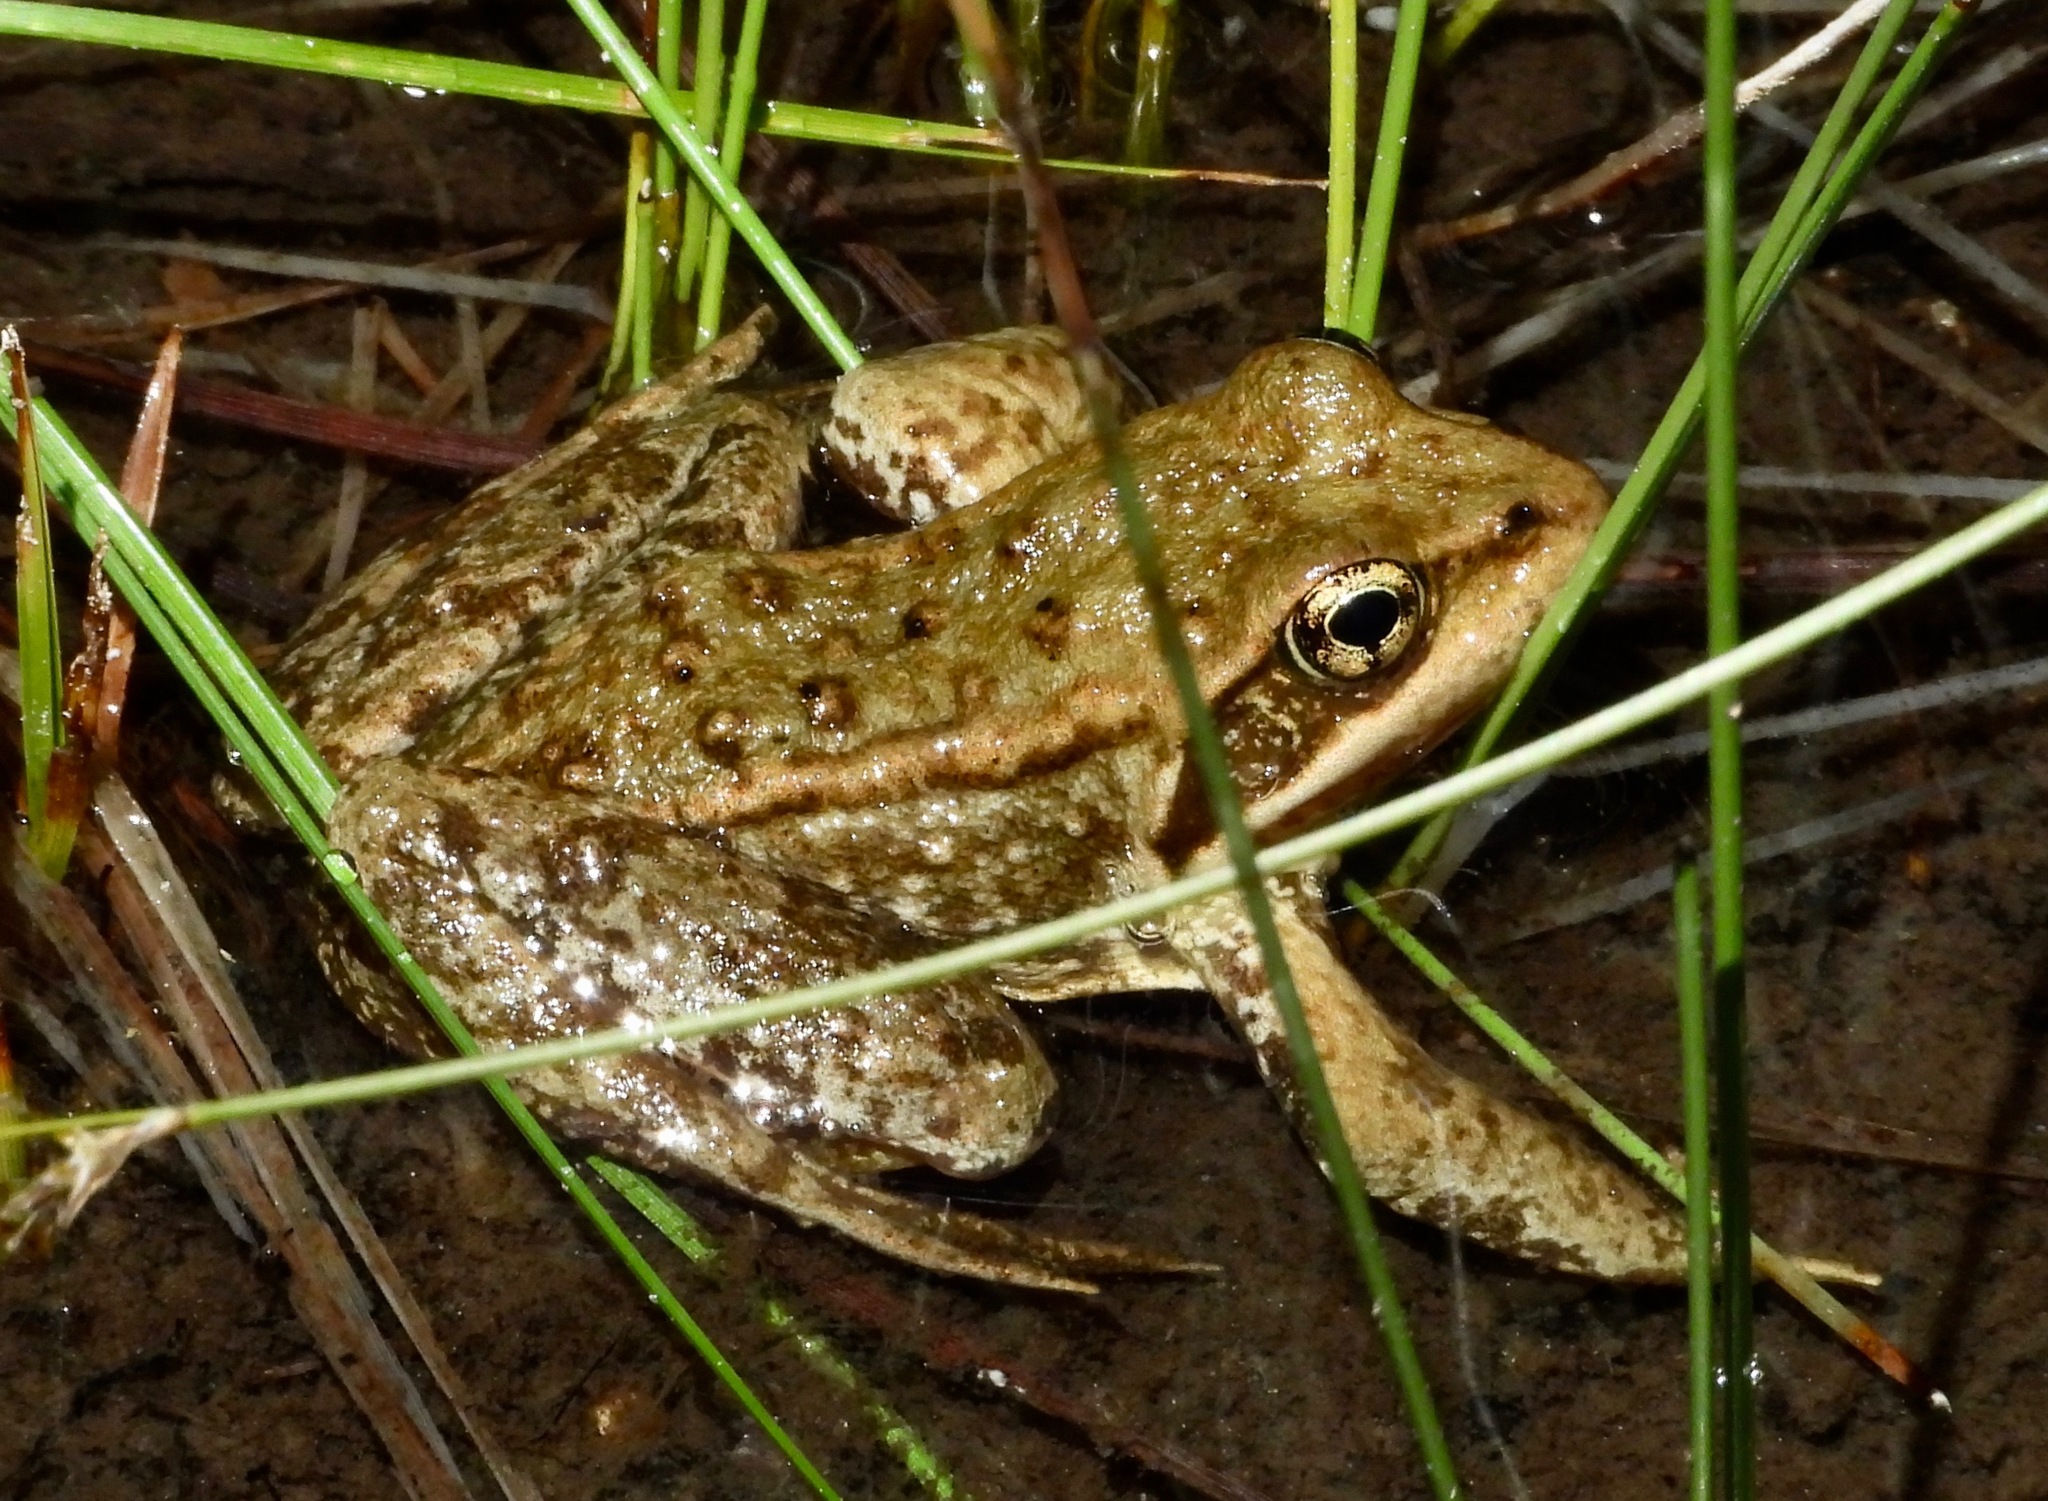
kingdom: Animalia
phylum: Chordata
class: Amphibia
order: Anura
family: Ranidae
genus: Rana
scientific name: Rana cascadae
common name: Cascades frog
